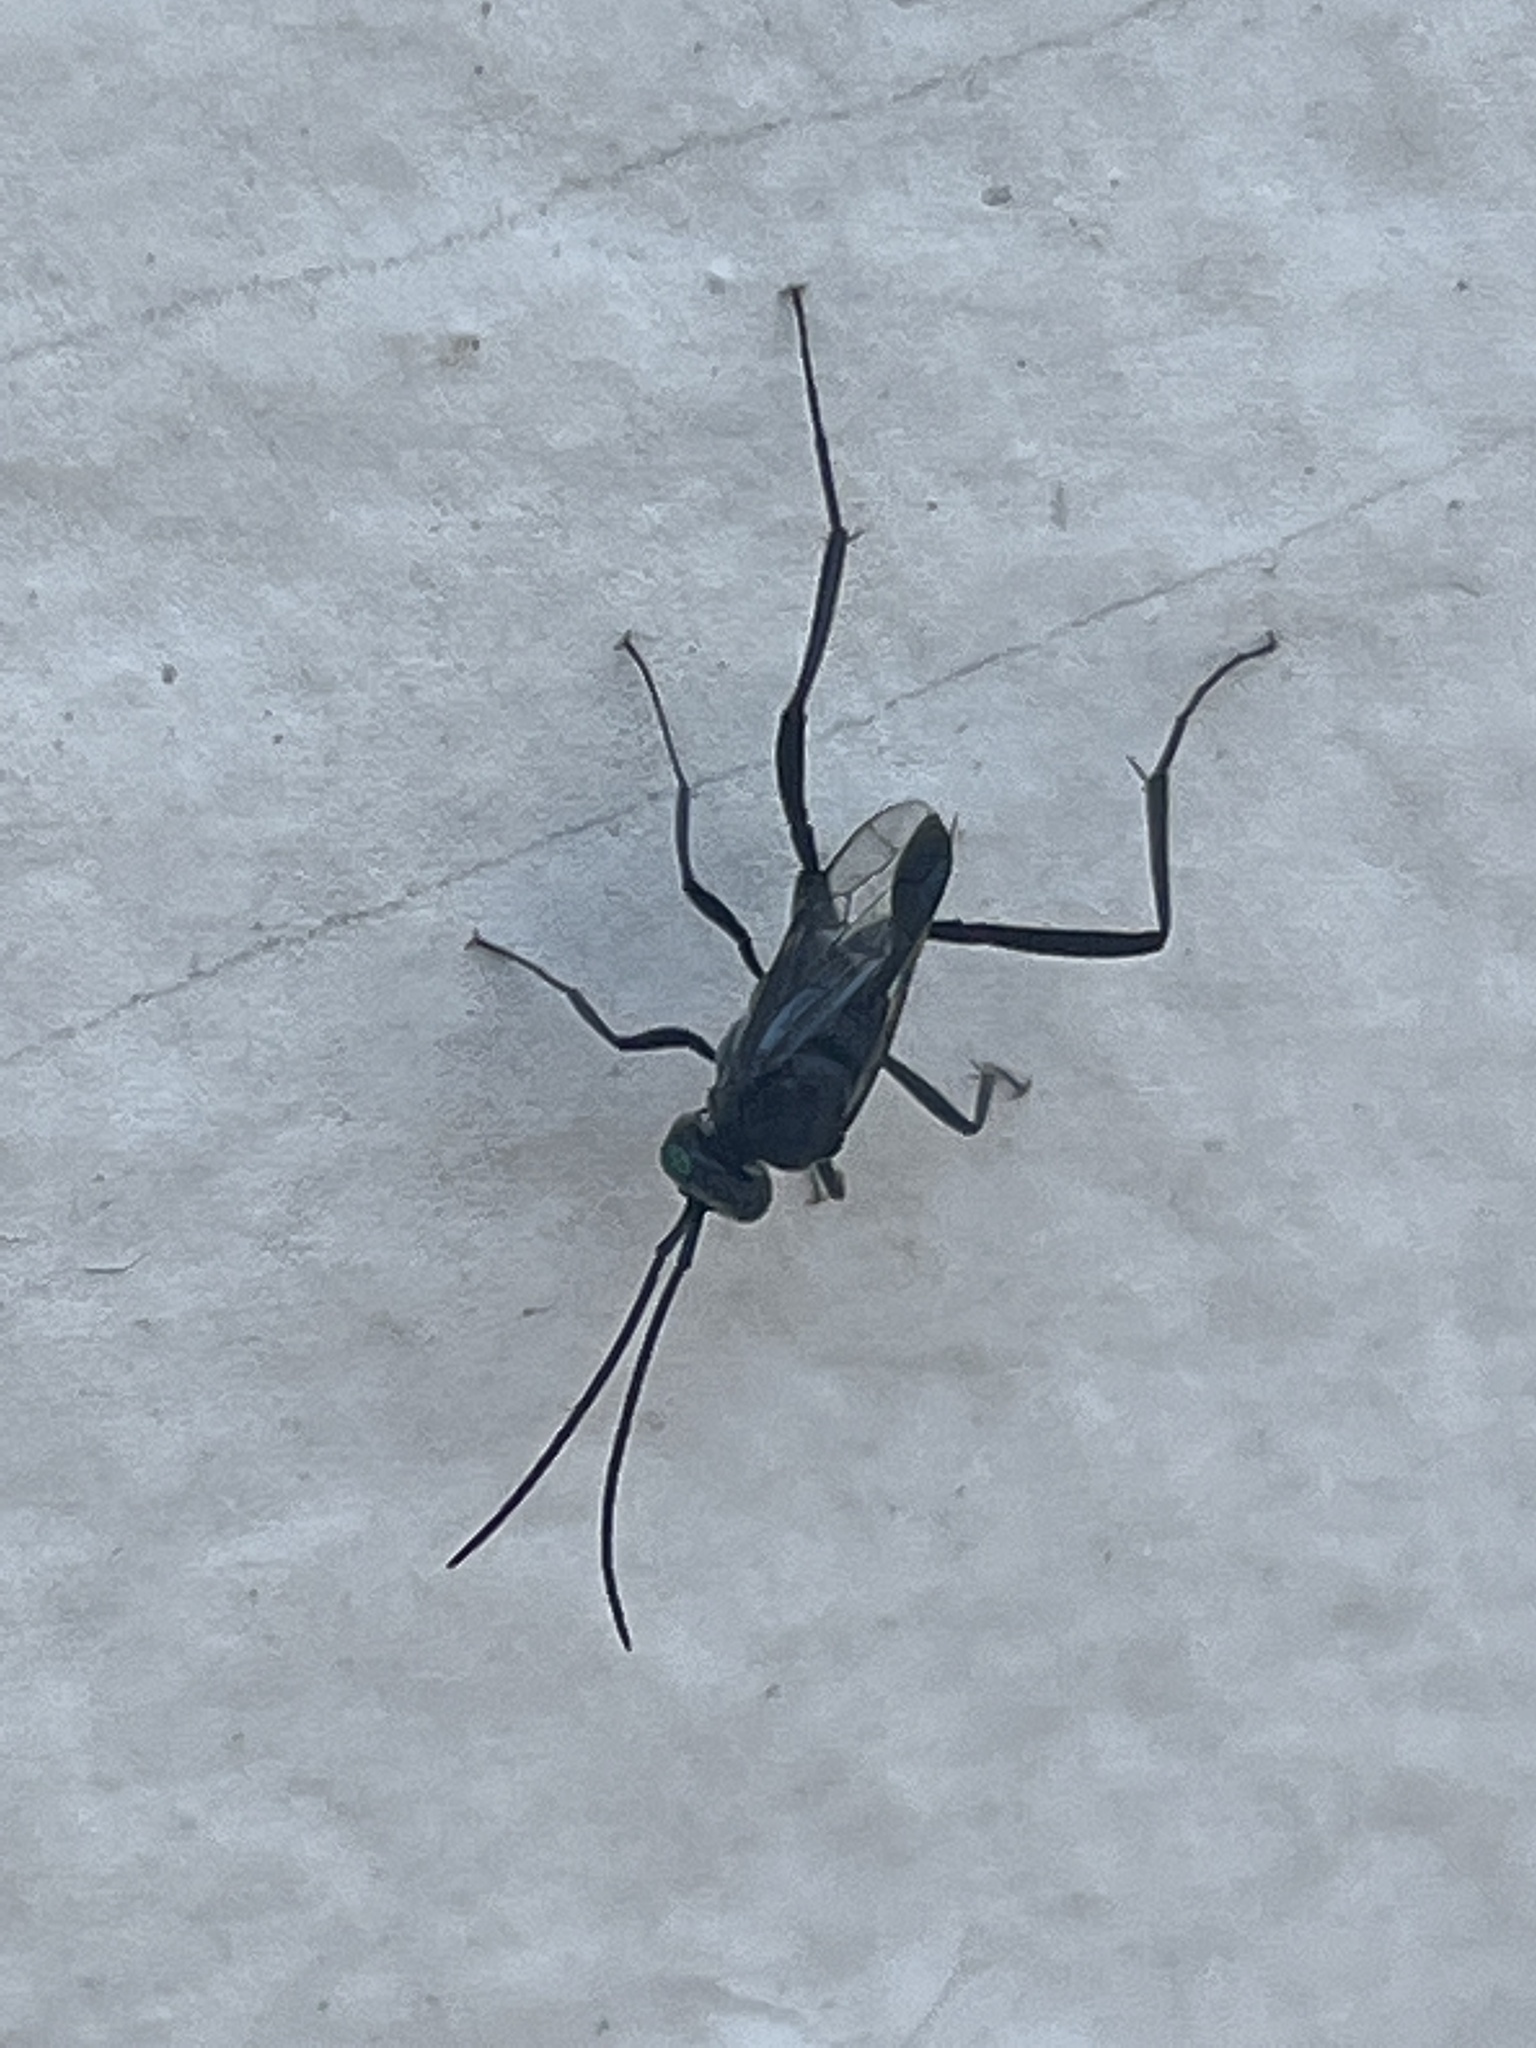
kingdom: Animalia
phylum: Arthropoda
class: Insecta
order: Hymenoptera
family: Evaniidae
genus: Evania
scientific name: Evania appendigaster
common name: Ensign wasp
